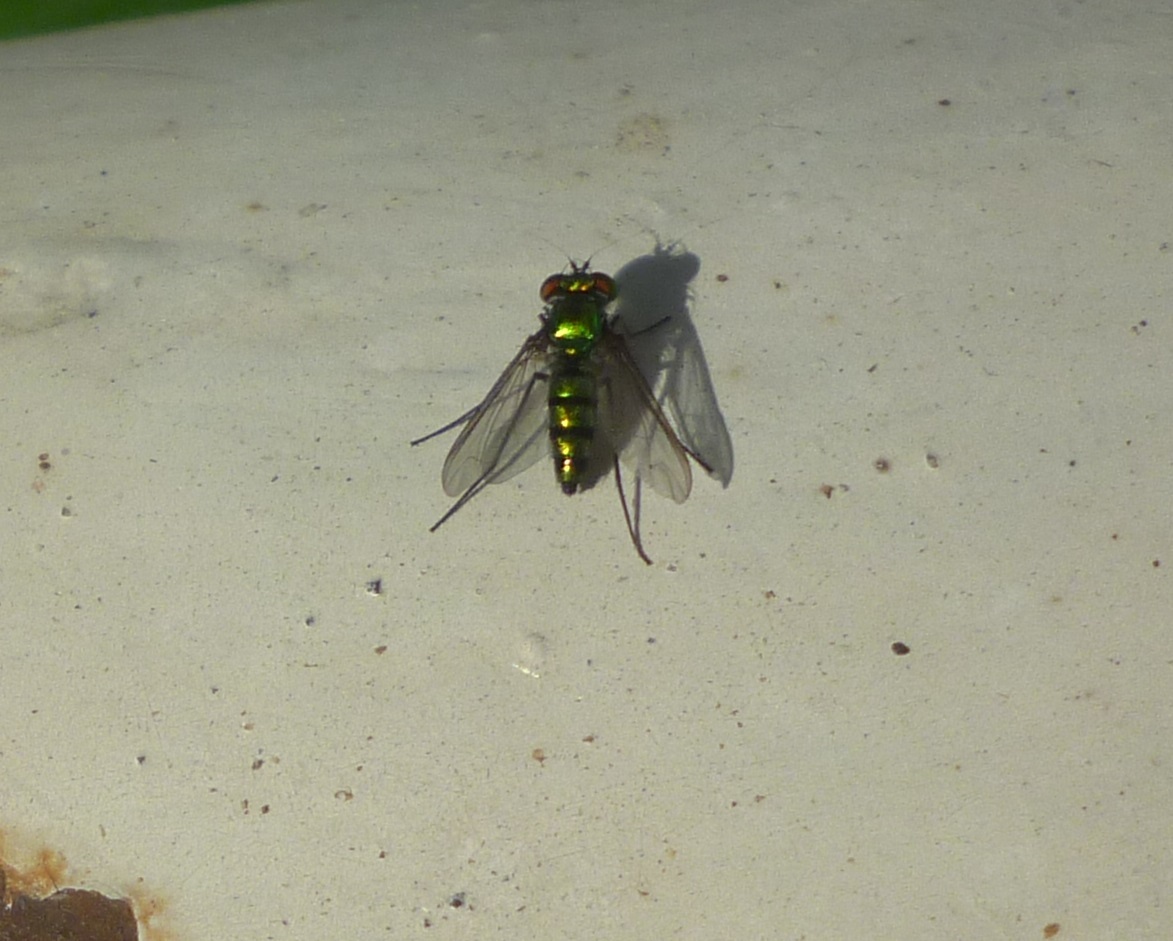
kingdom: Animalia
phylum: Arthropoda
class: Insecta
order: Diptera
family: Dolichopodidae
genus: Condylostylus
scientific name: Condylostylus longicornis
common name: Long-legged fly
